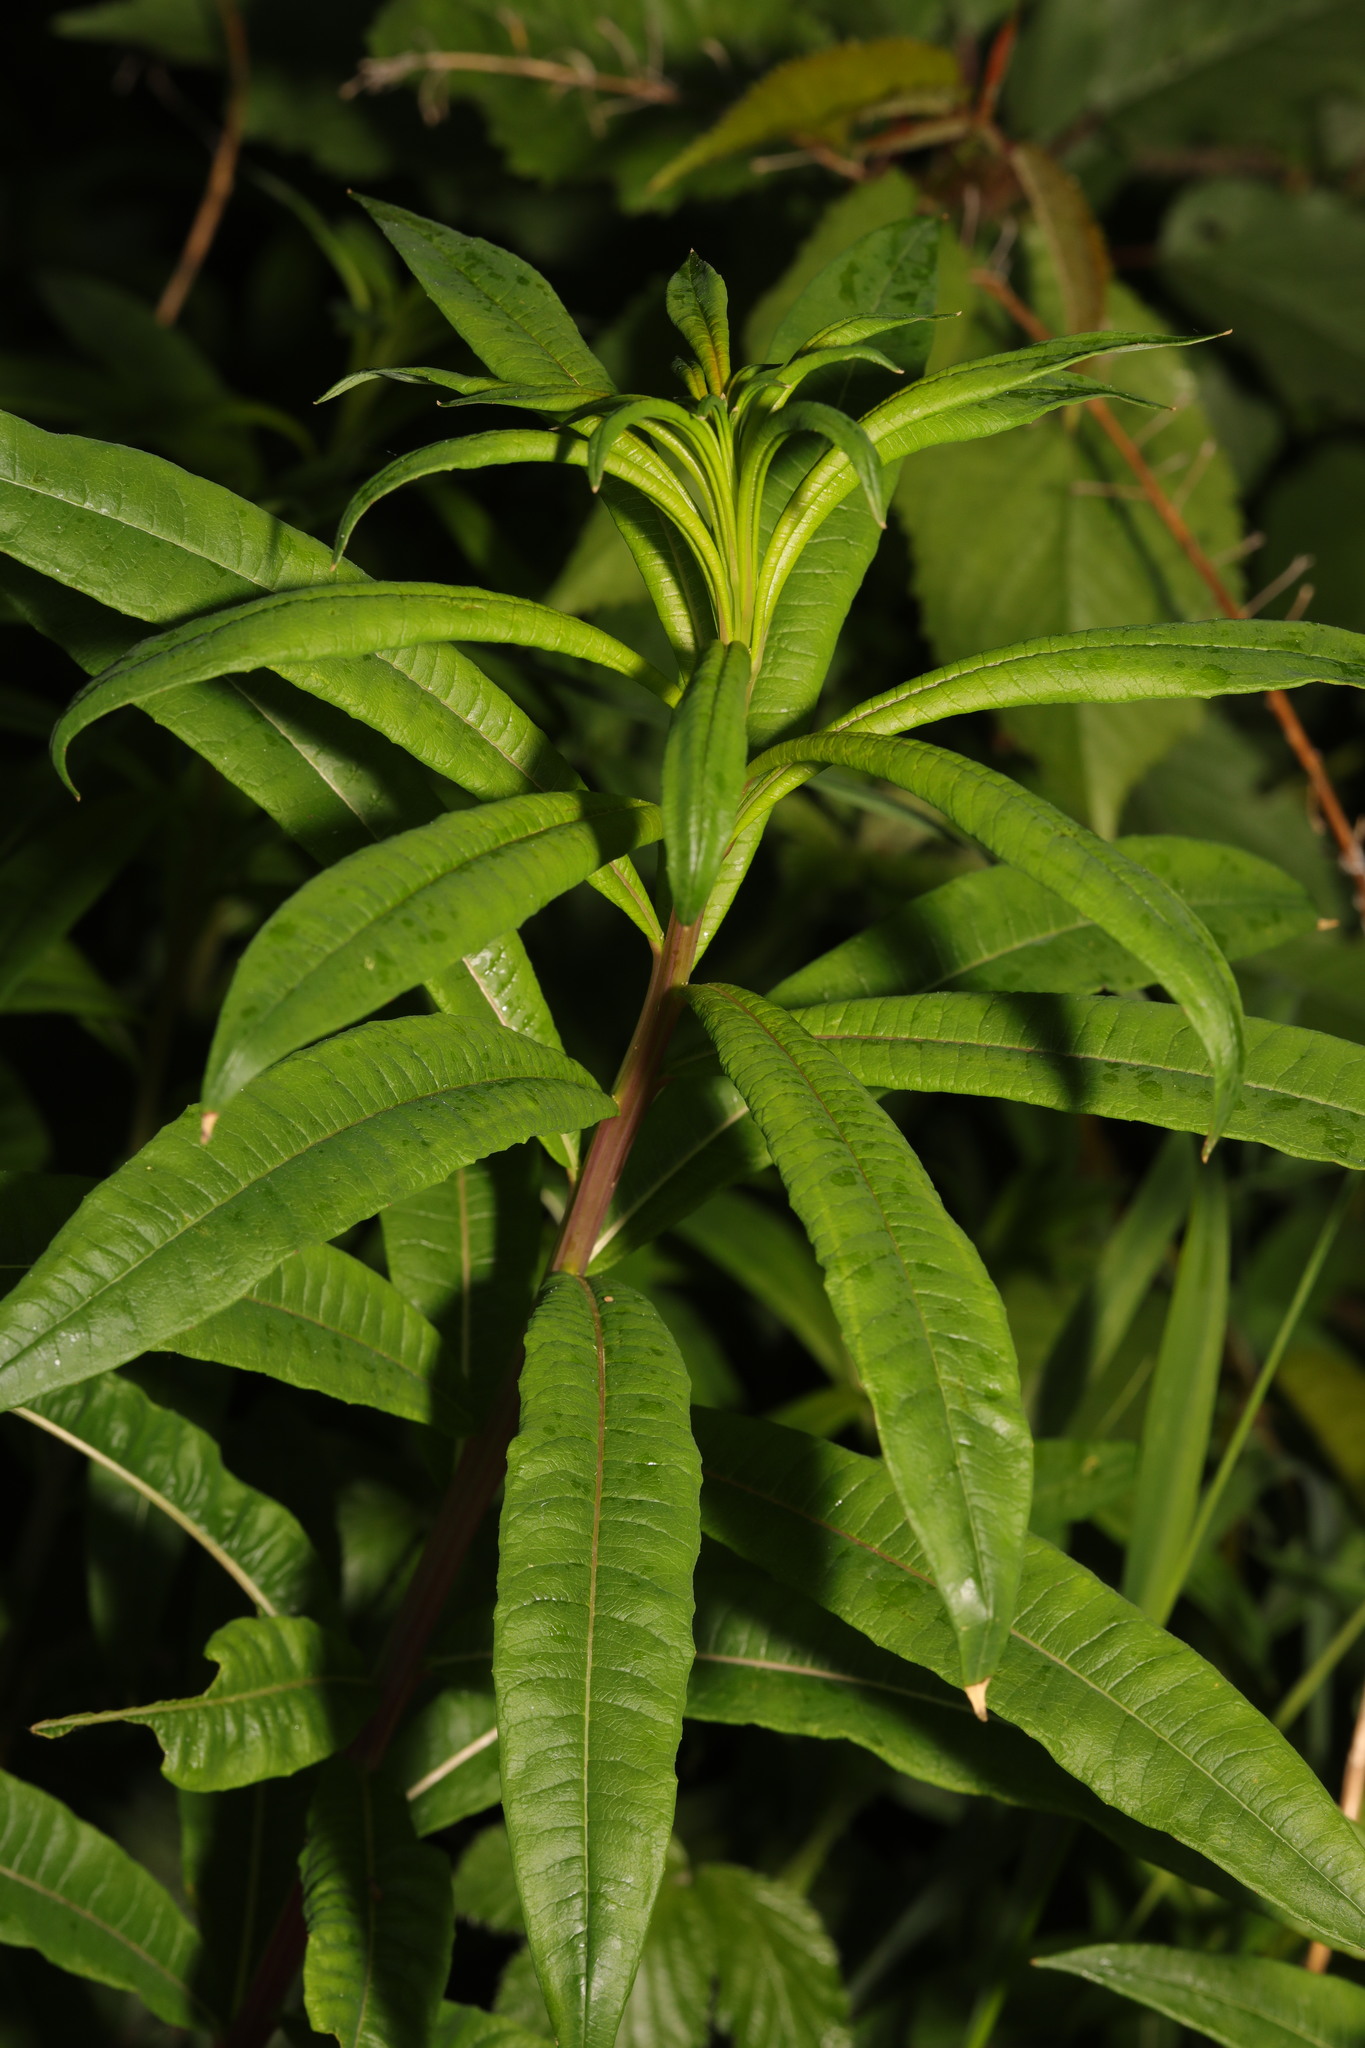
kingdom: Plantae
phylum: Tracheophyta
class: Magnoliopsida
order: Myrtales
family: Onagraceae
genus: Chamaenerion
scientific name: Chamaenerion angustifolium
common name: Fireweed
